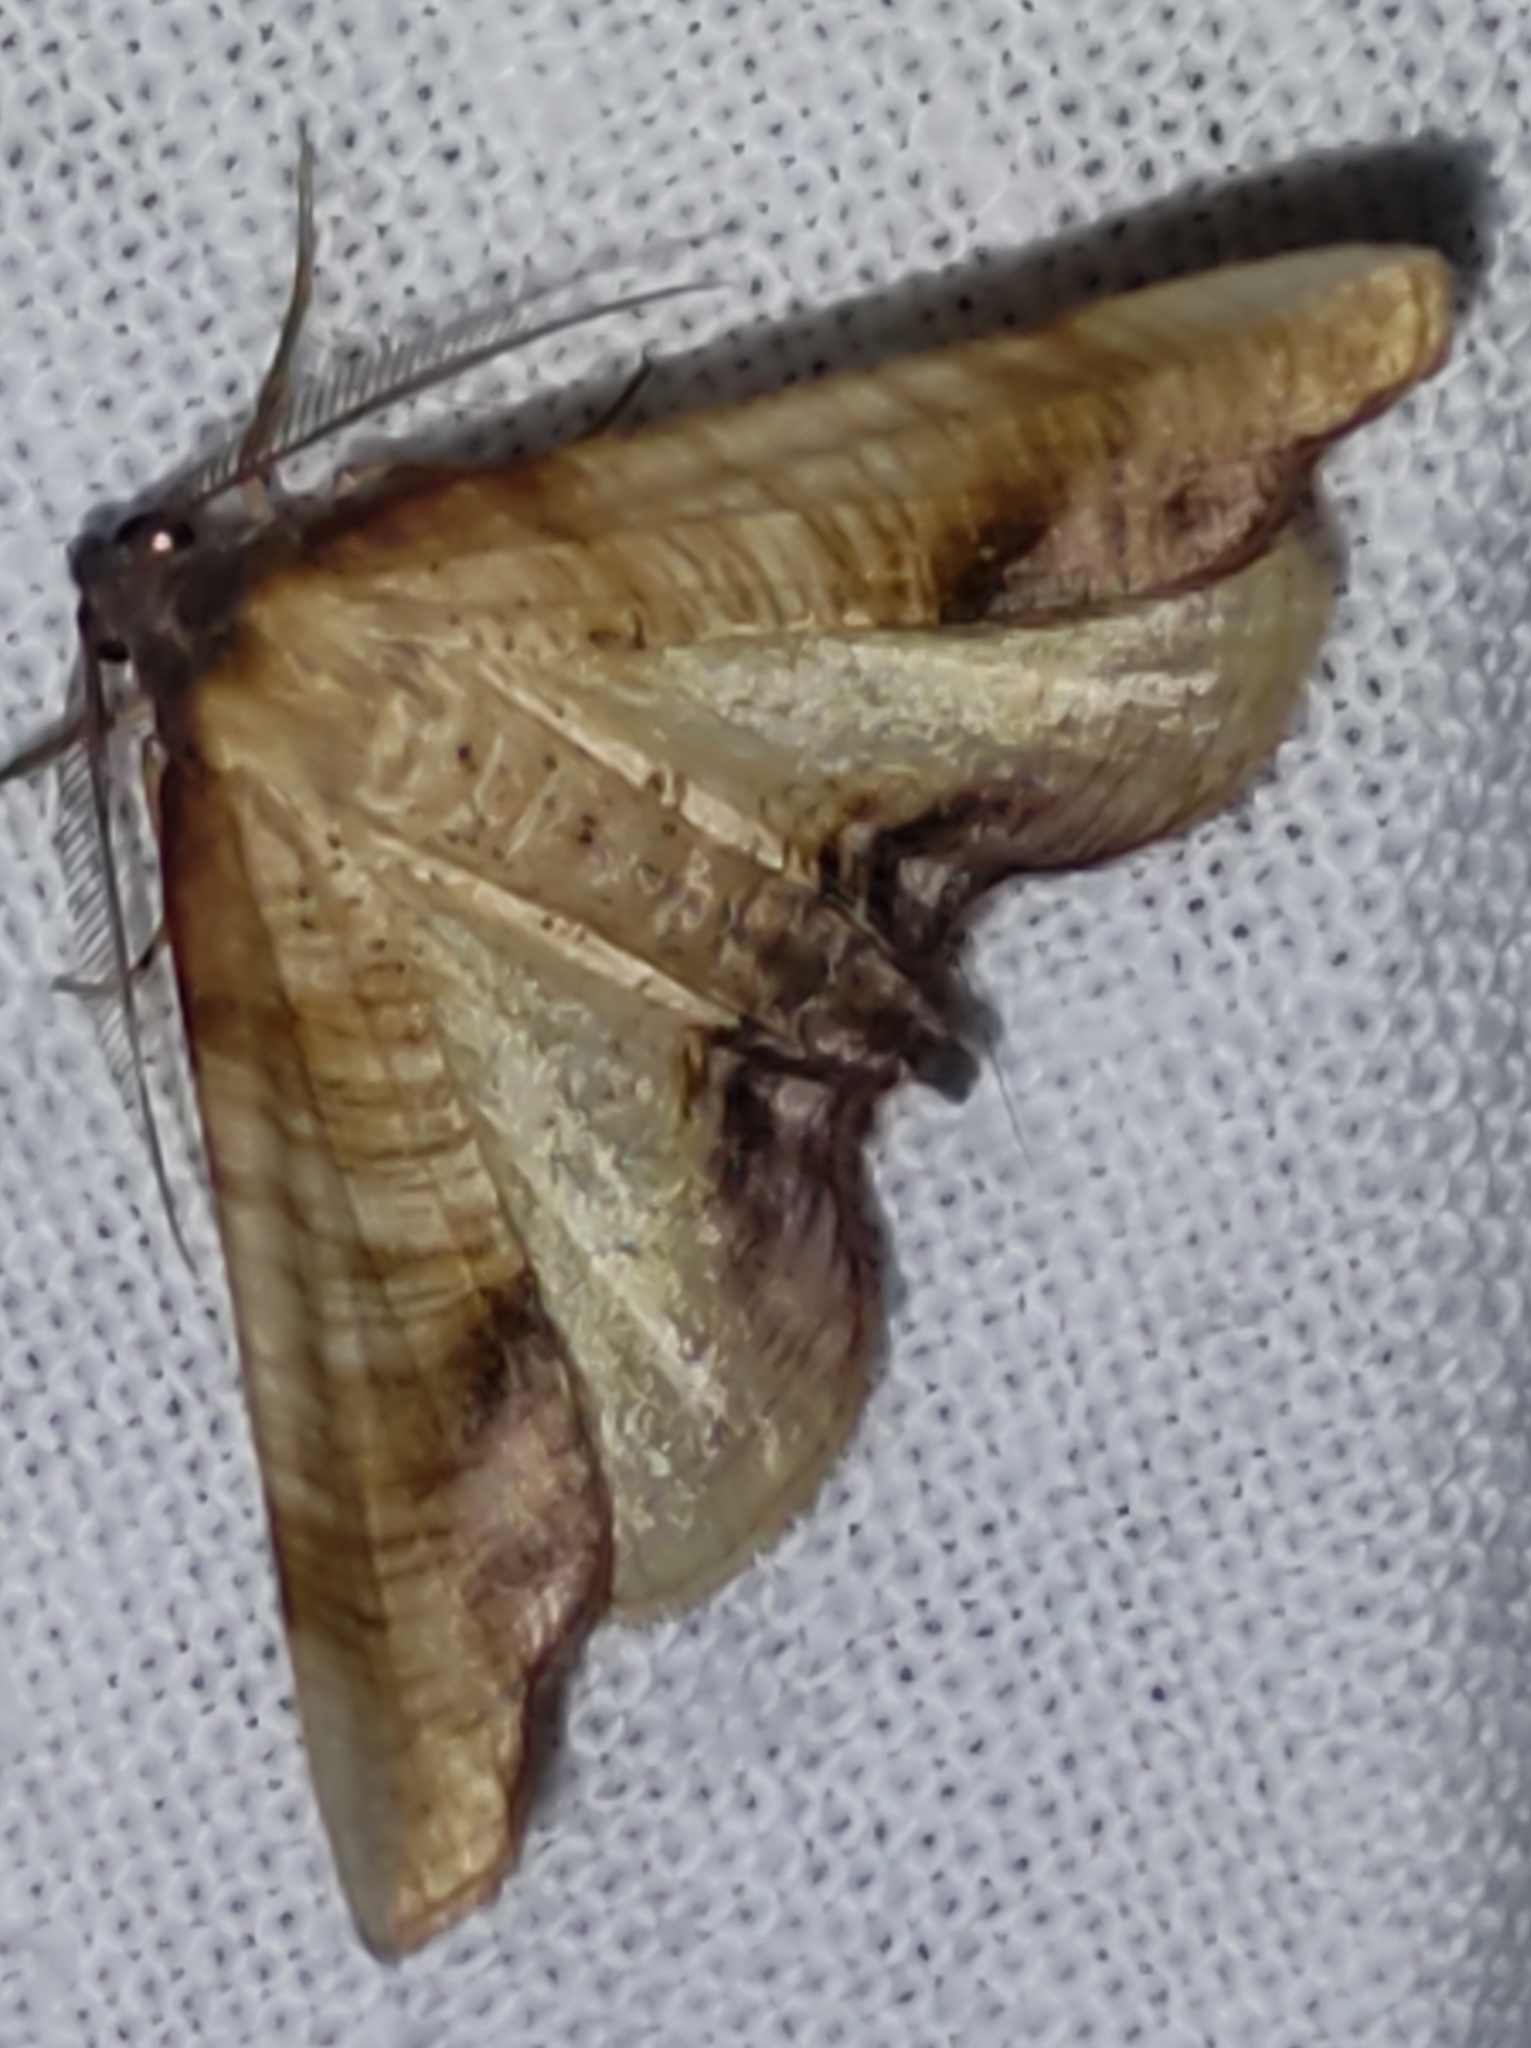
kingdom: Animalia
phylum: Arthropoda
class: Insecta
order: Lepidoptera
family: Geometridae
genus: Plagodis
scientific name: Plagodis dolabraria
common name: Scorched wing
